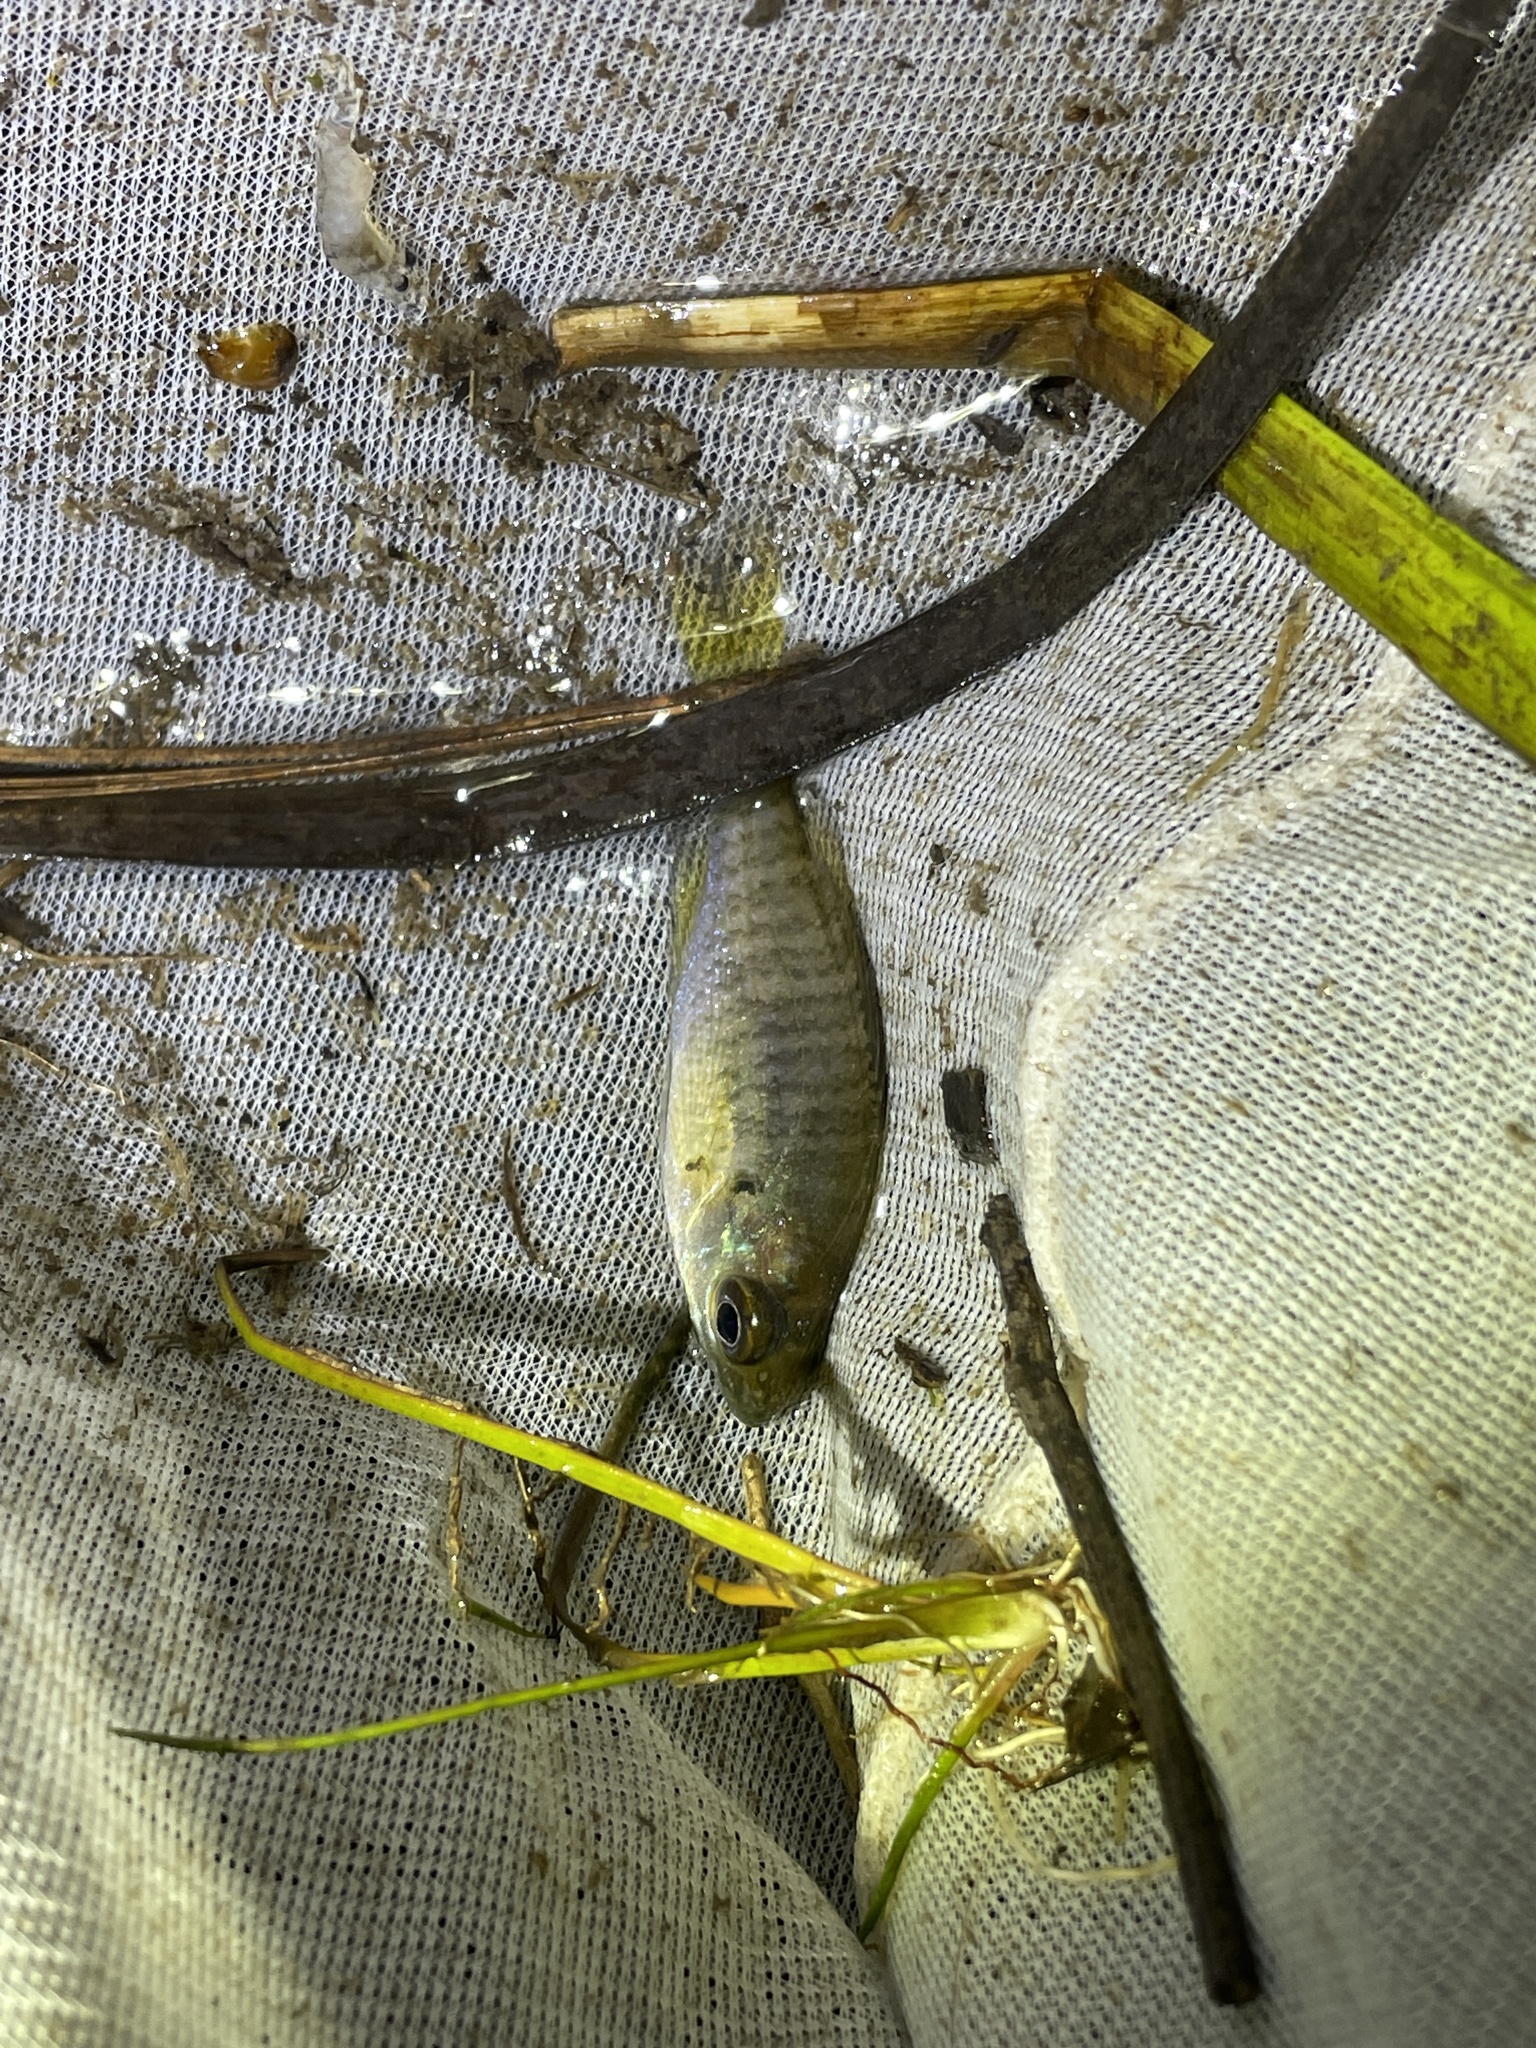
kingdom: Animalia
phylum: Chordata
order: Perciformes
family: Centrarchidae
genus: Lepomis
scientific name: Lepomis macrochirus
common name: Bluegill
